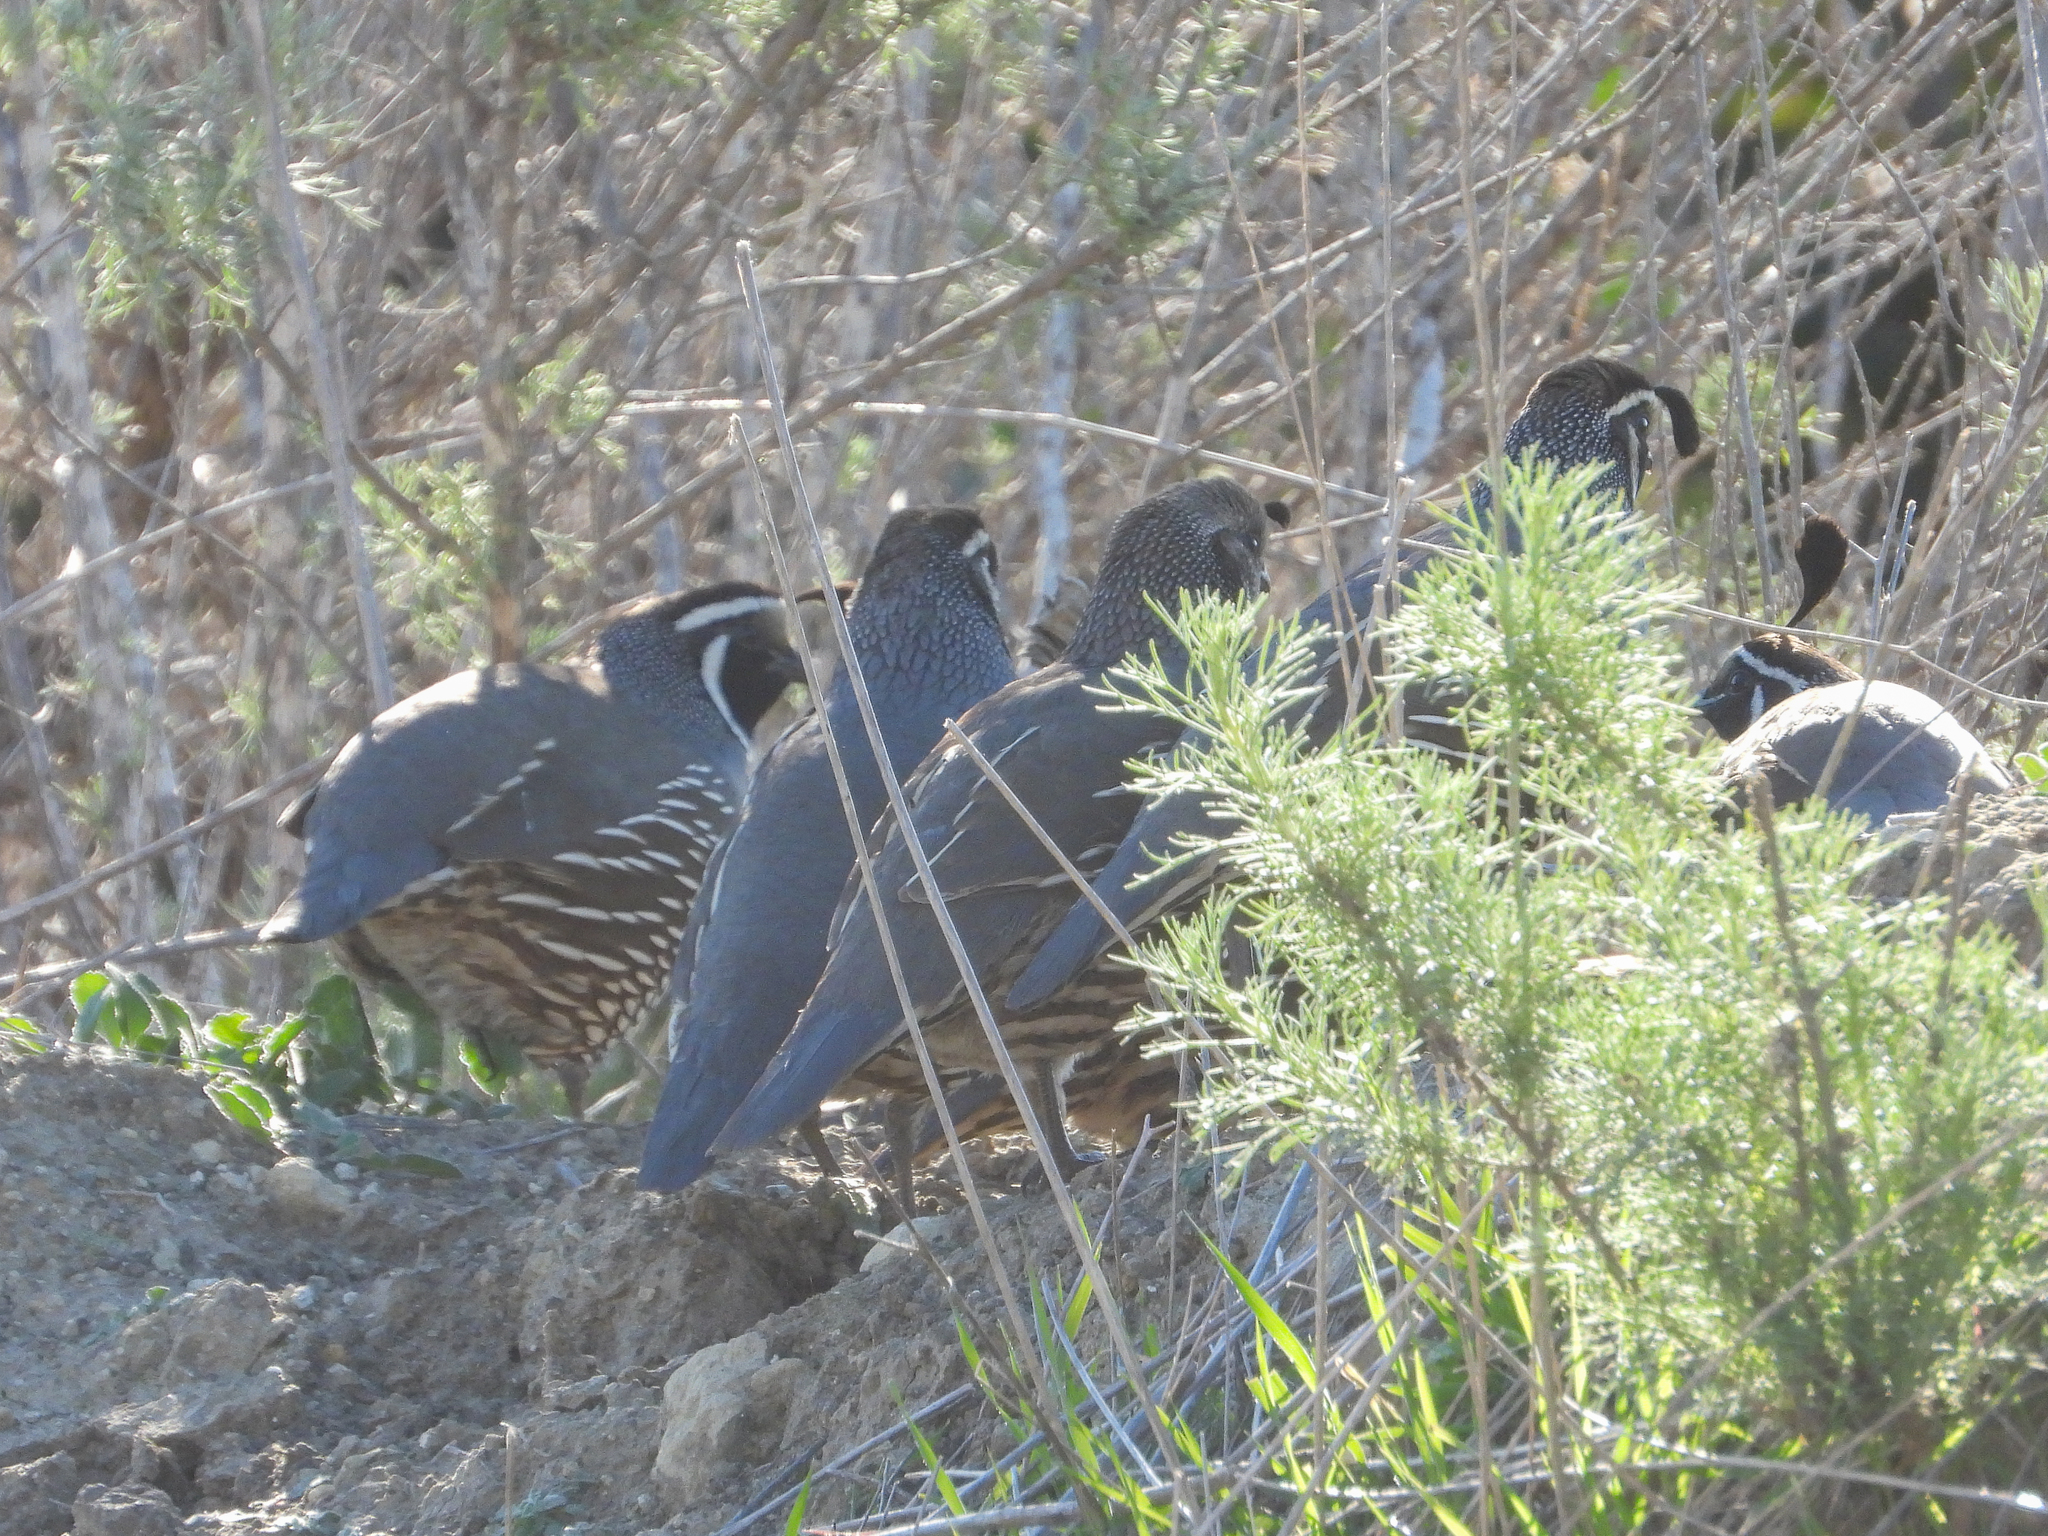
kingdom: Animalia
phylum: Chordata
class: Aves
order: Galliformes
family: Odontophoridae
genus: Callipepla
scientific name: Callipepla californica
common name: California quail
